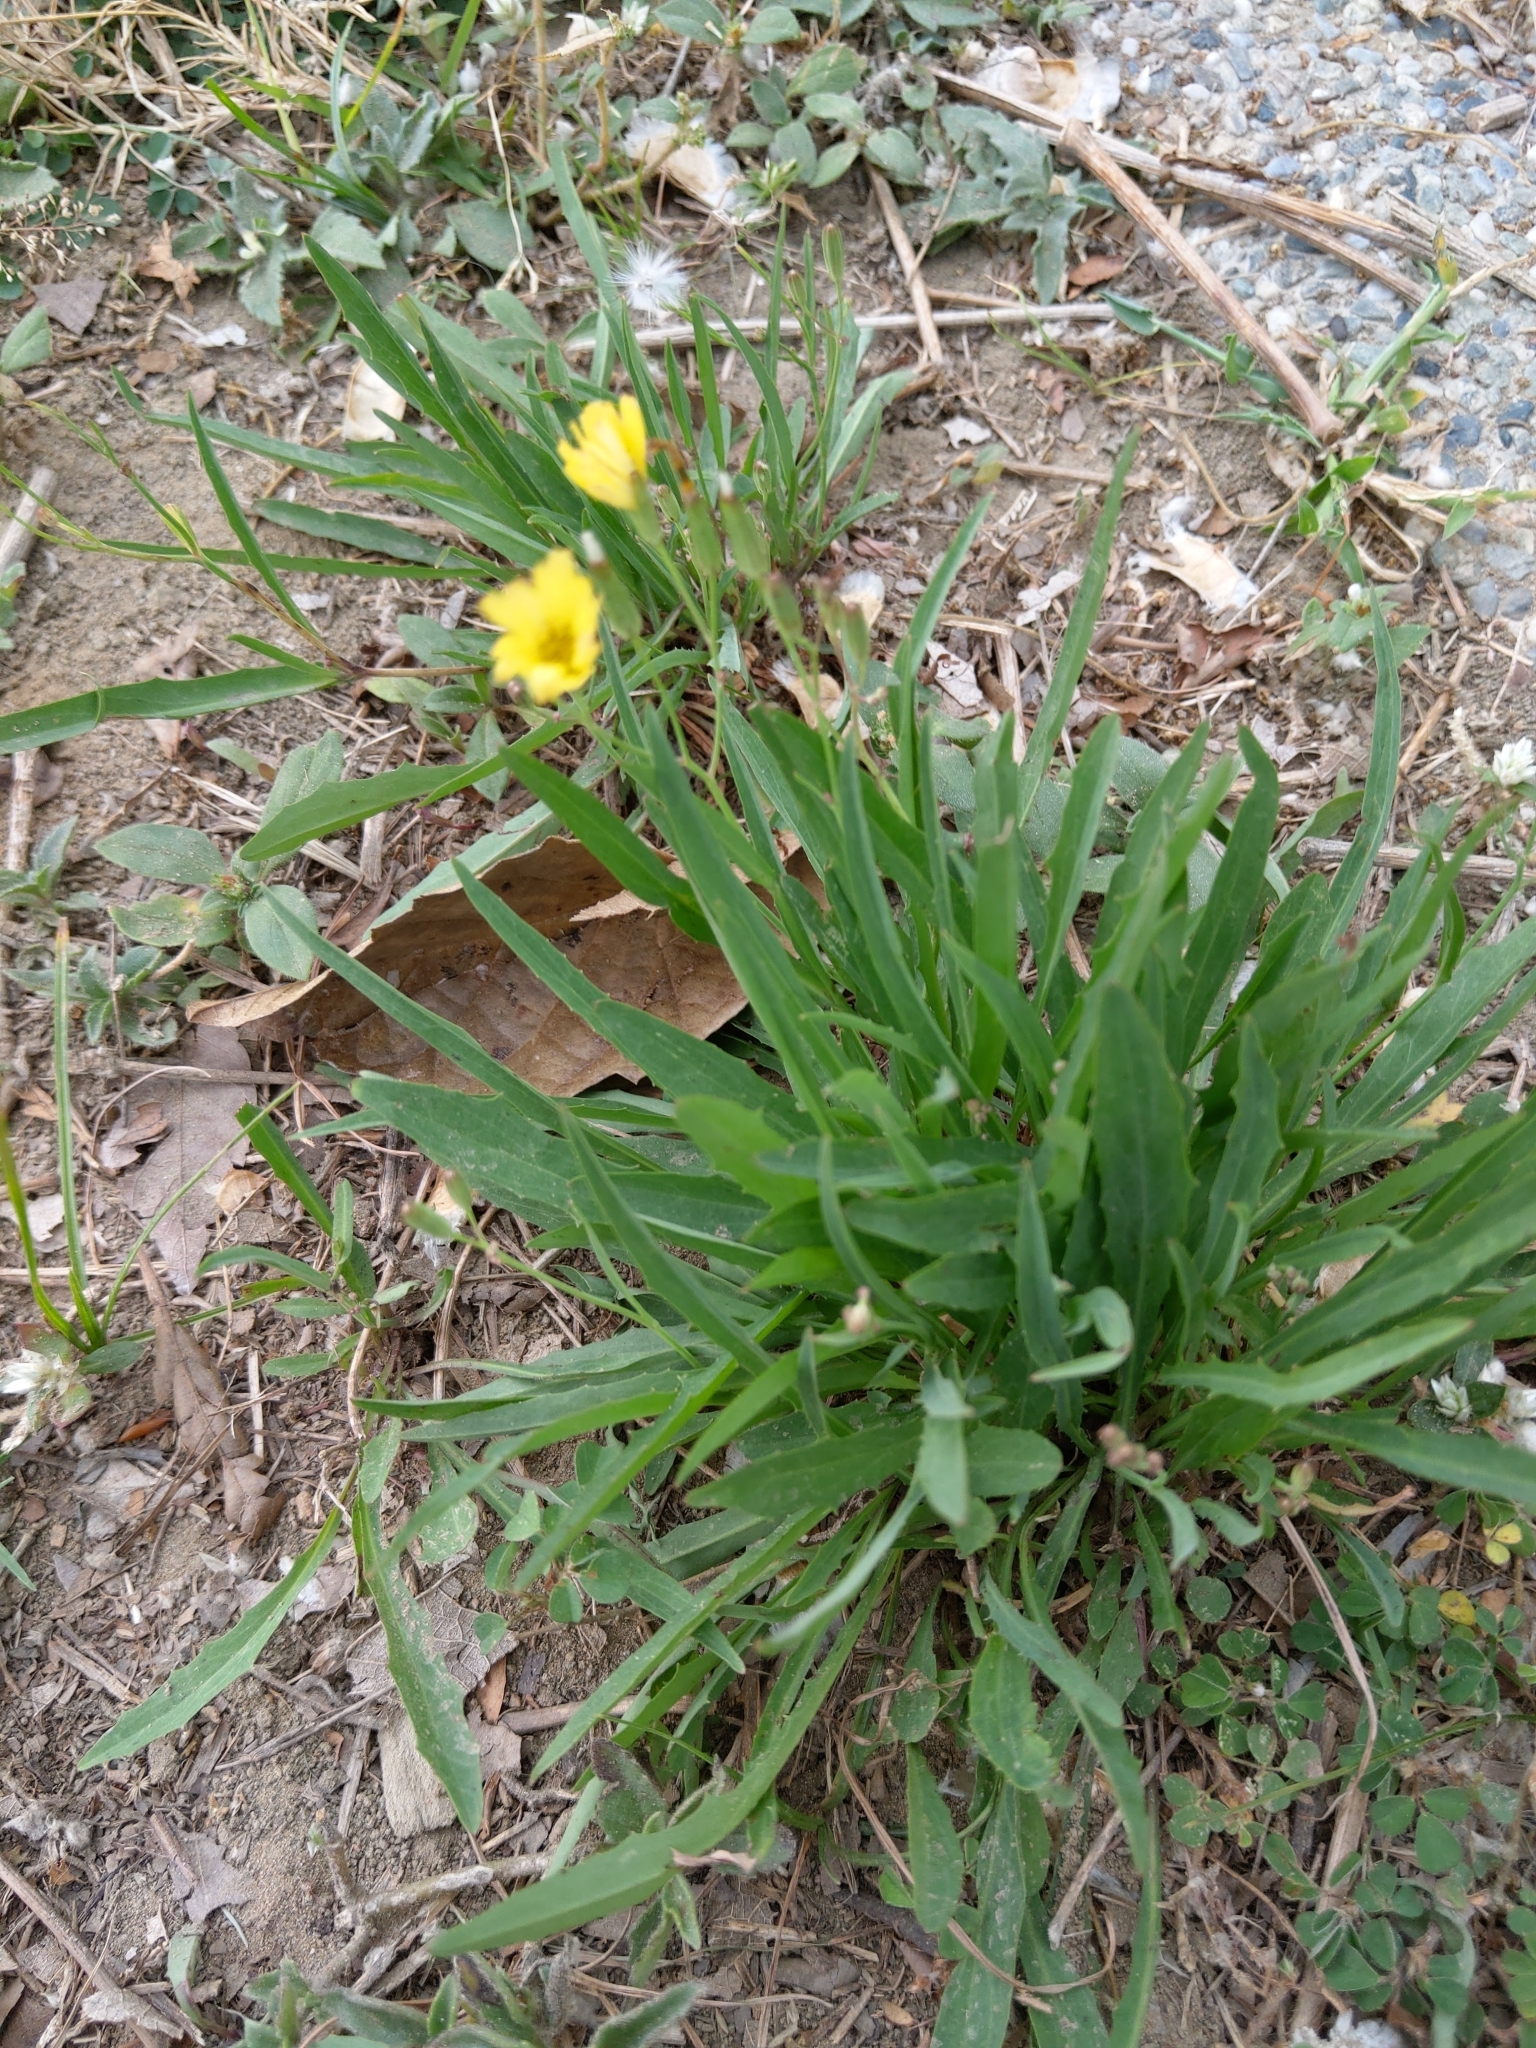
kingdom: Plantae
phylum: Tracheophyta
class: Magnoliopsida
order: Asterales
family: Asteraceae
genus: Ixeris
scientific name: Ixeris chinensis
